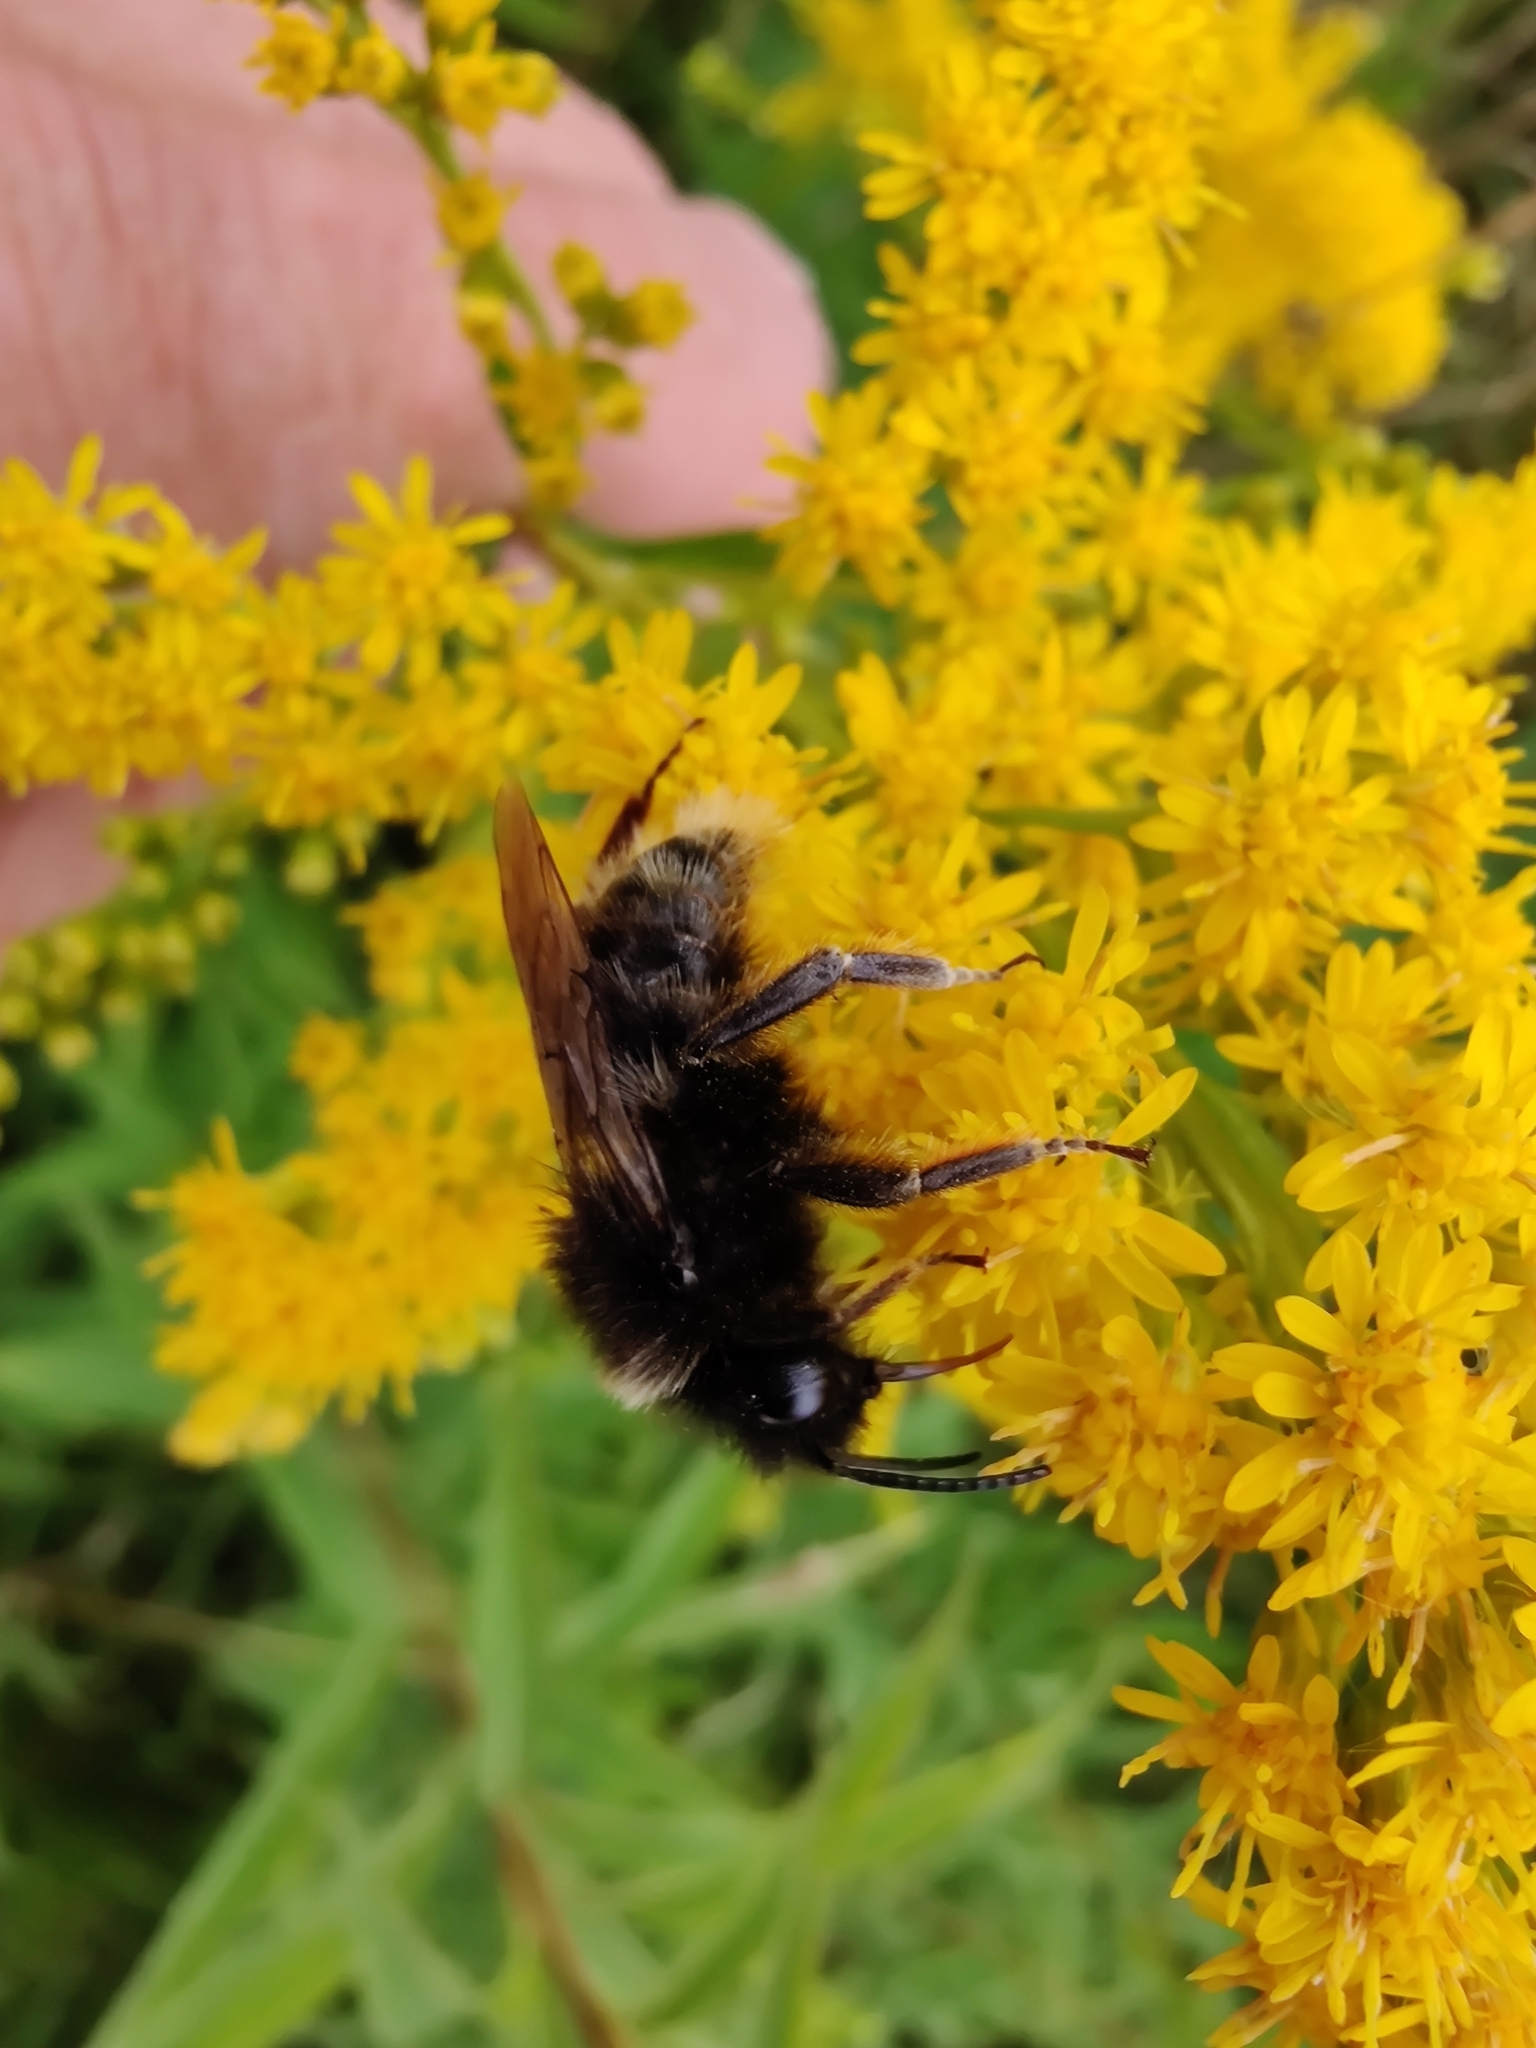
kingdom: Animalia
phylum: Arthropoda
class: Insecta
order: Hymenoptera
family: Apidae
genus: Bombus
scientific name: Bombus rupestris
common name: Hill cuckoo-bee
